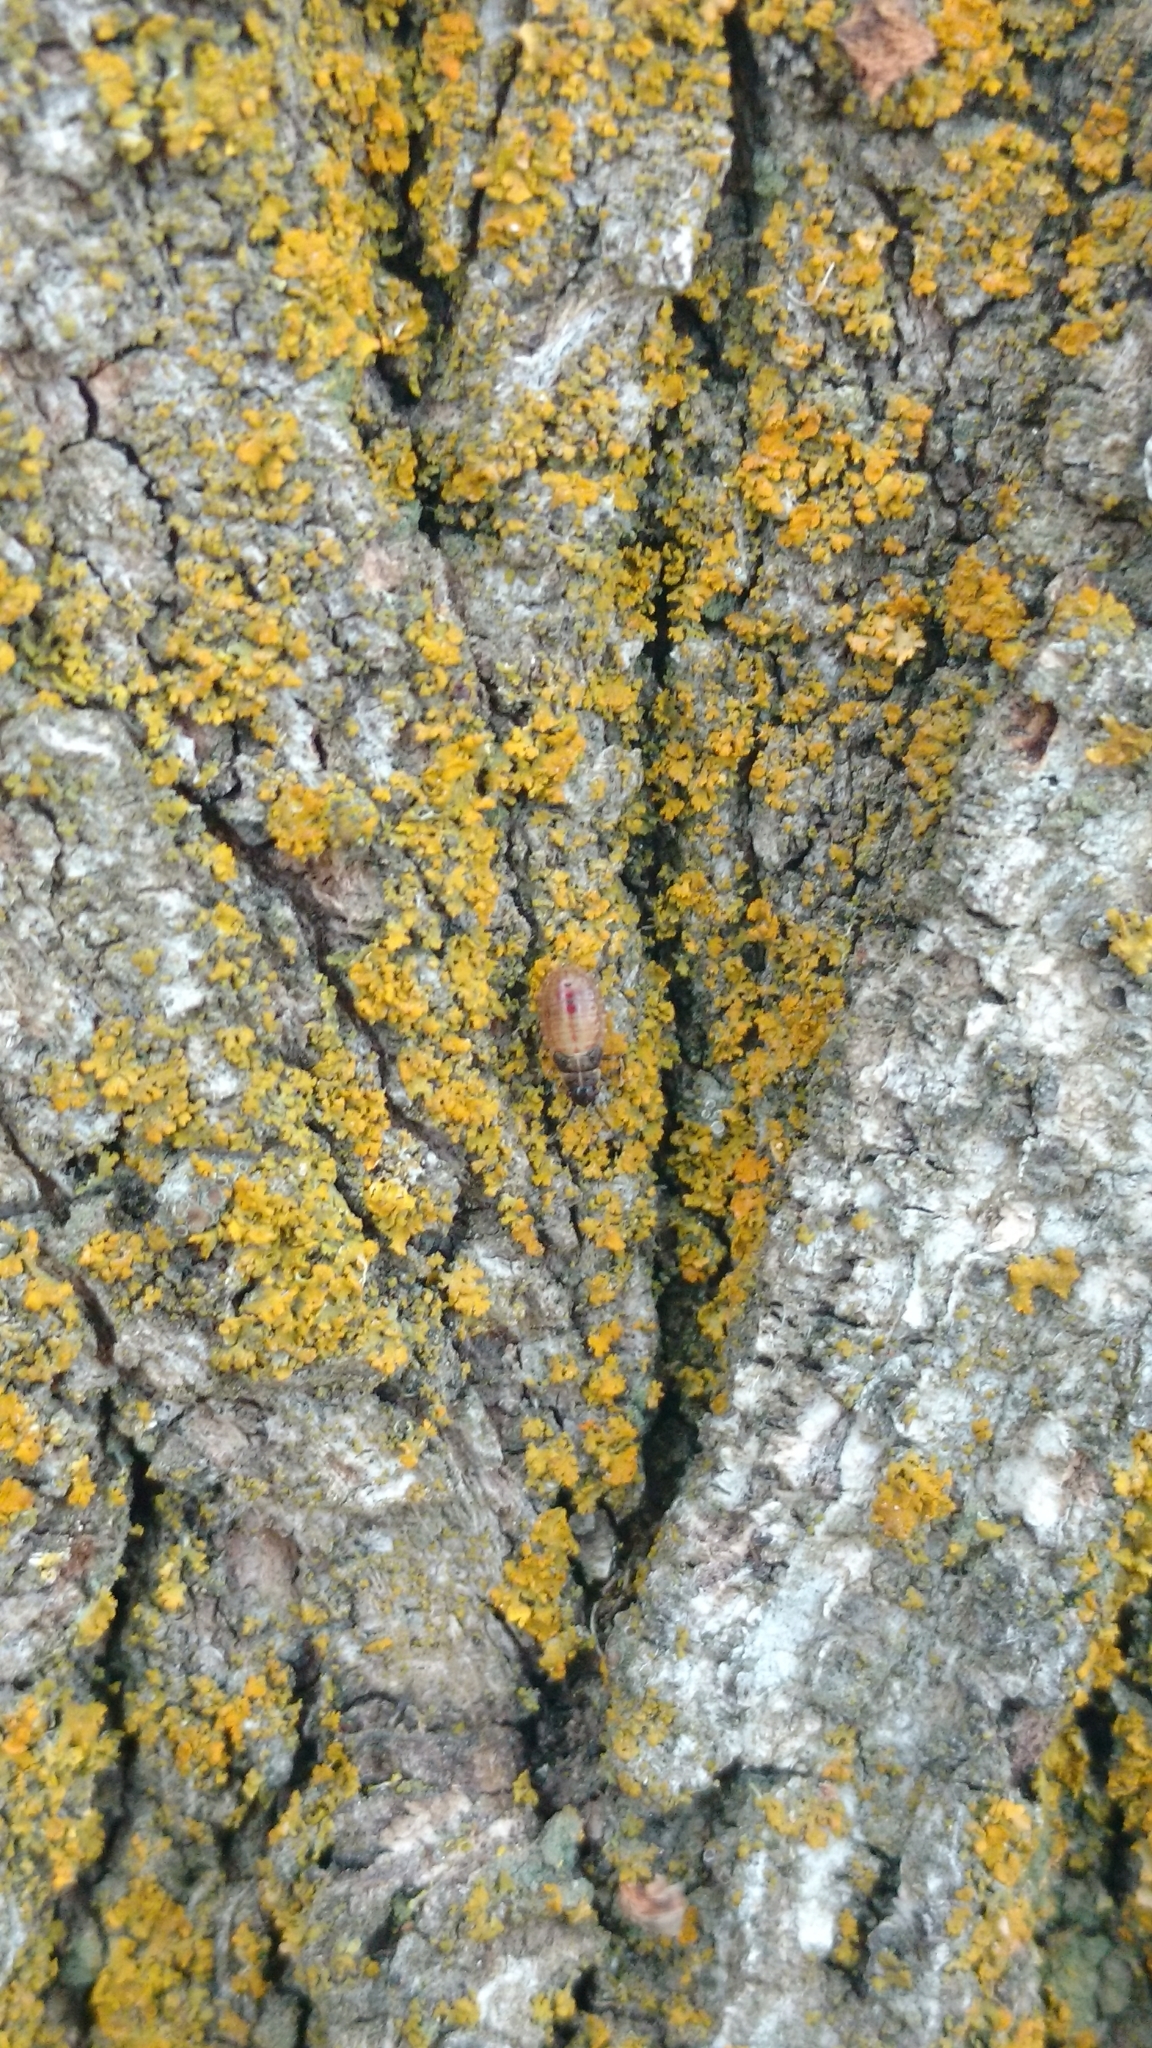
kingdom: Animalia
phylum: Arthropoda
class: Insecta
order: Hemiptera
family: Lygaeidae
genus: Arocatus
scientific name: Arocatus melanocephalus
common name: Lygaeid bug
